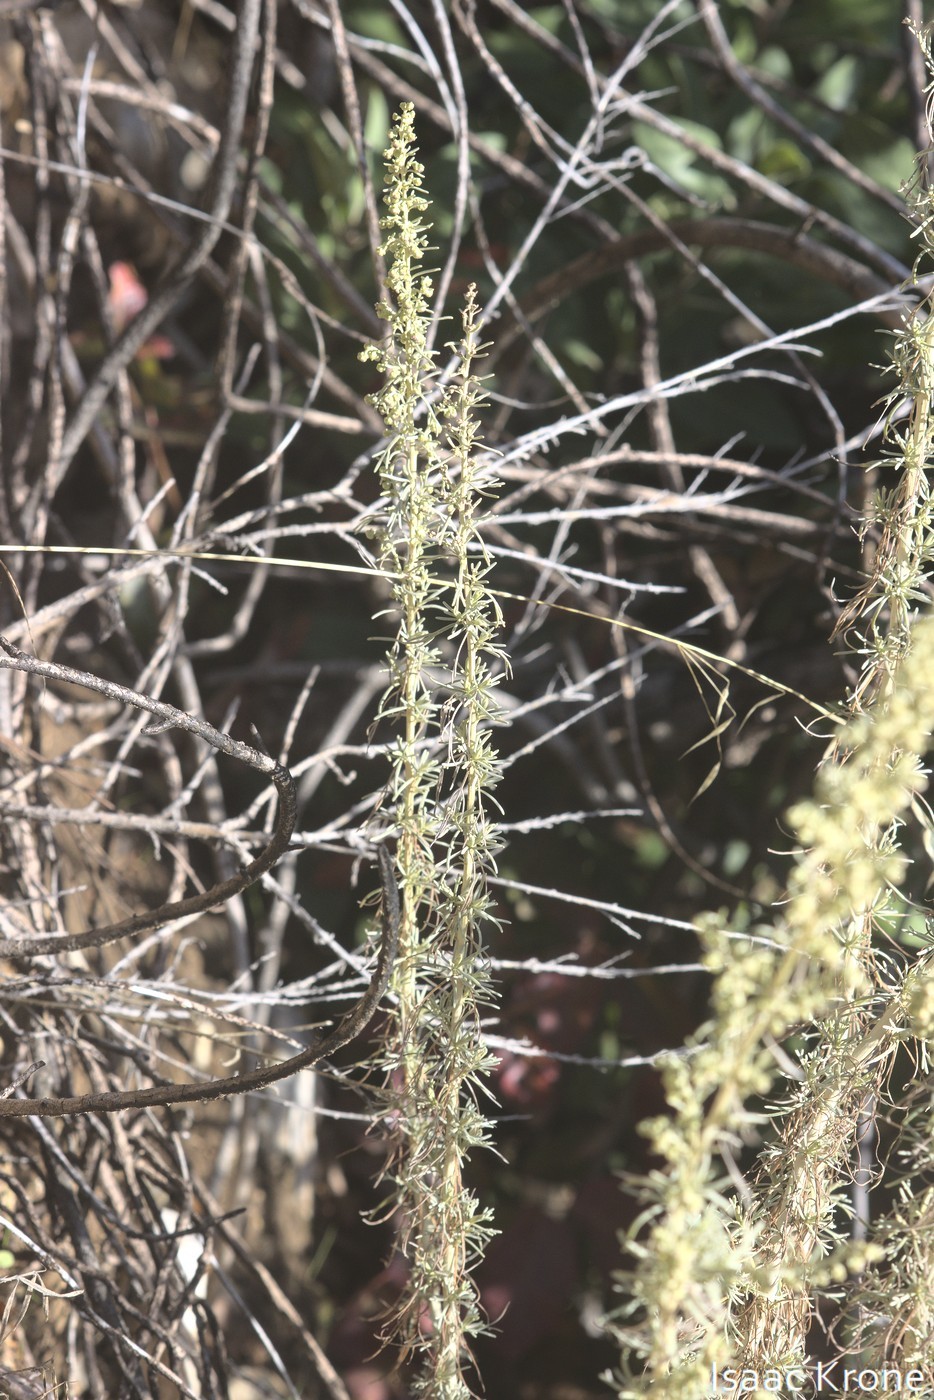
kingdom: Plantae
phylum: Tracheophyta
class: Magnoliopsida
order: Asterales
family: Asteraceae
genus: Artemisia
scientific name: Artemisia californica
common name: California sagebrush
